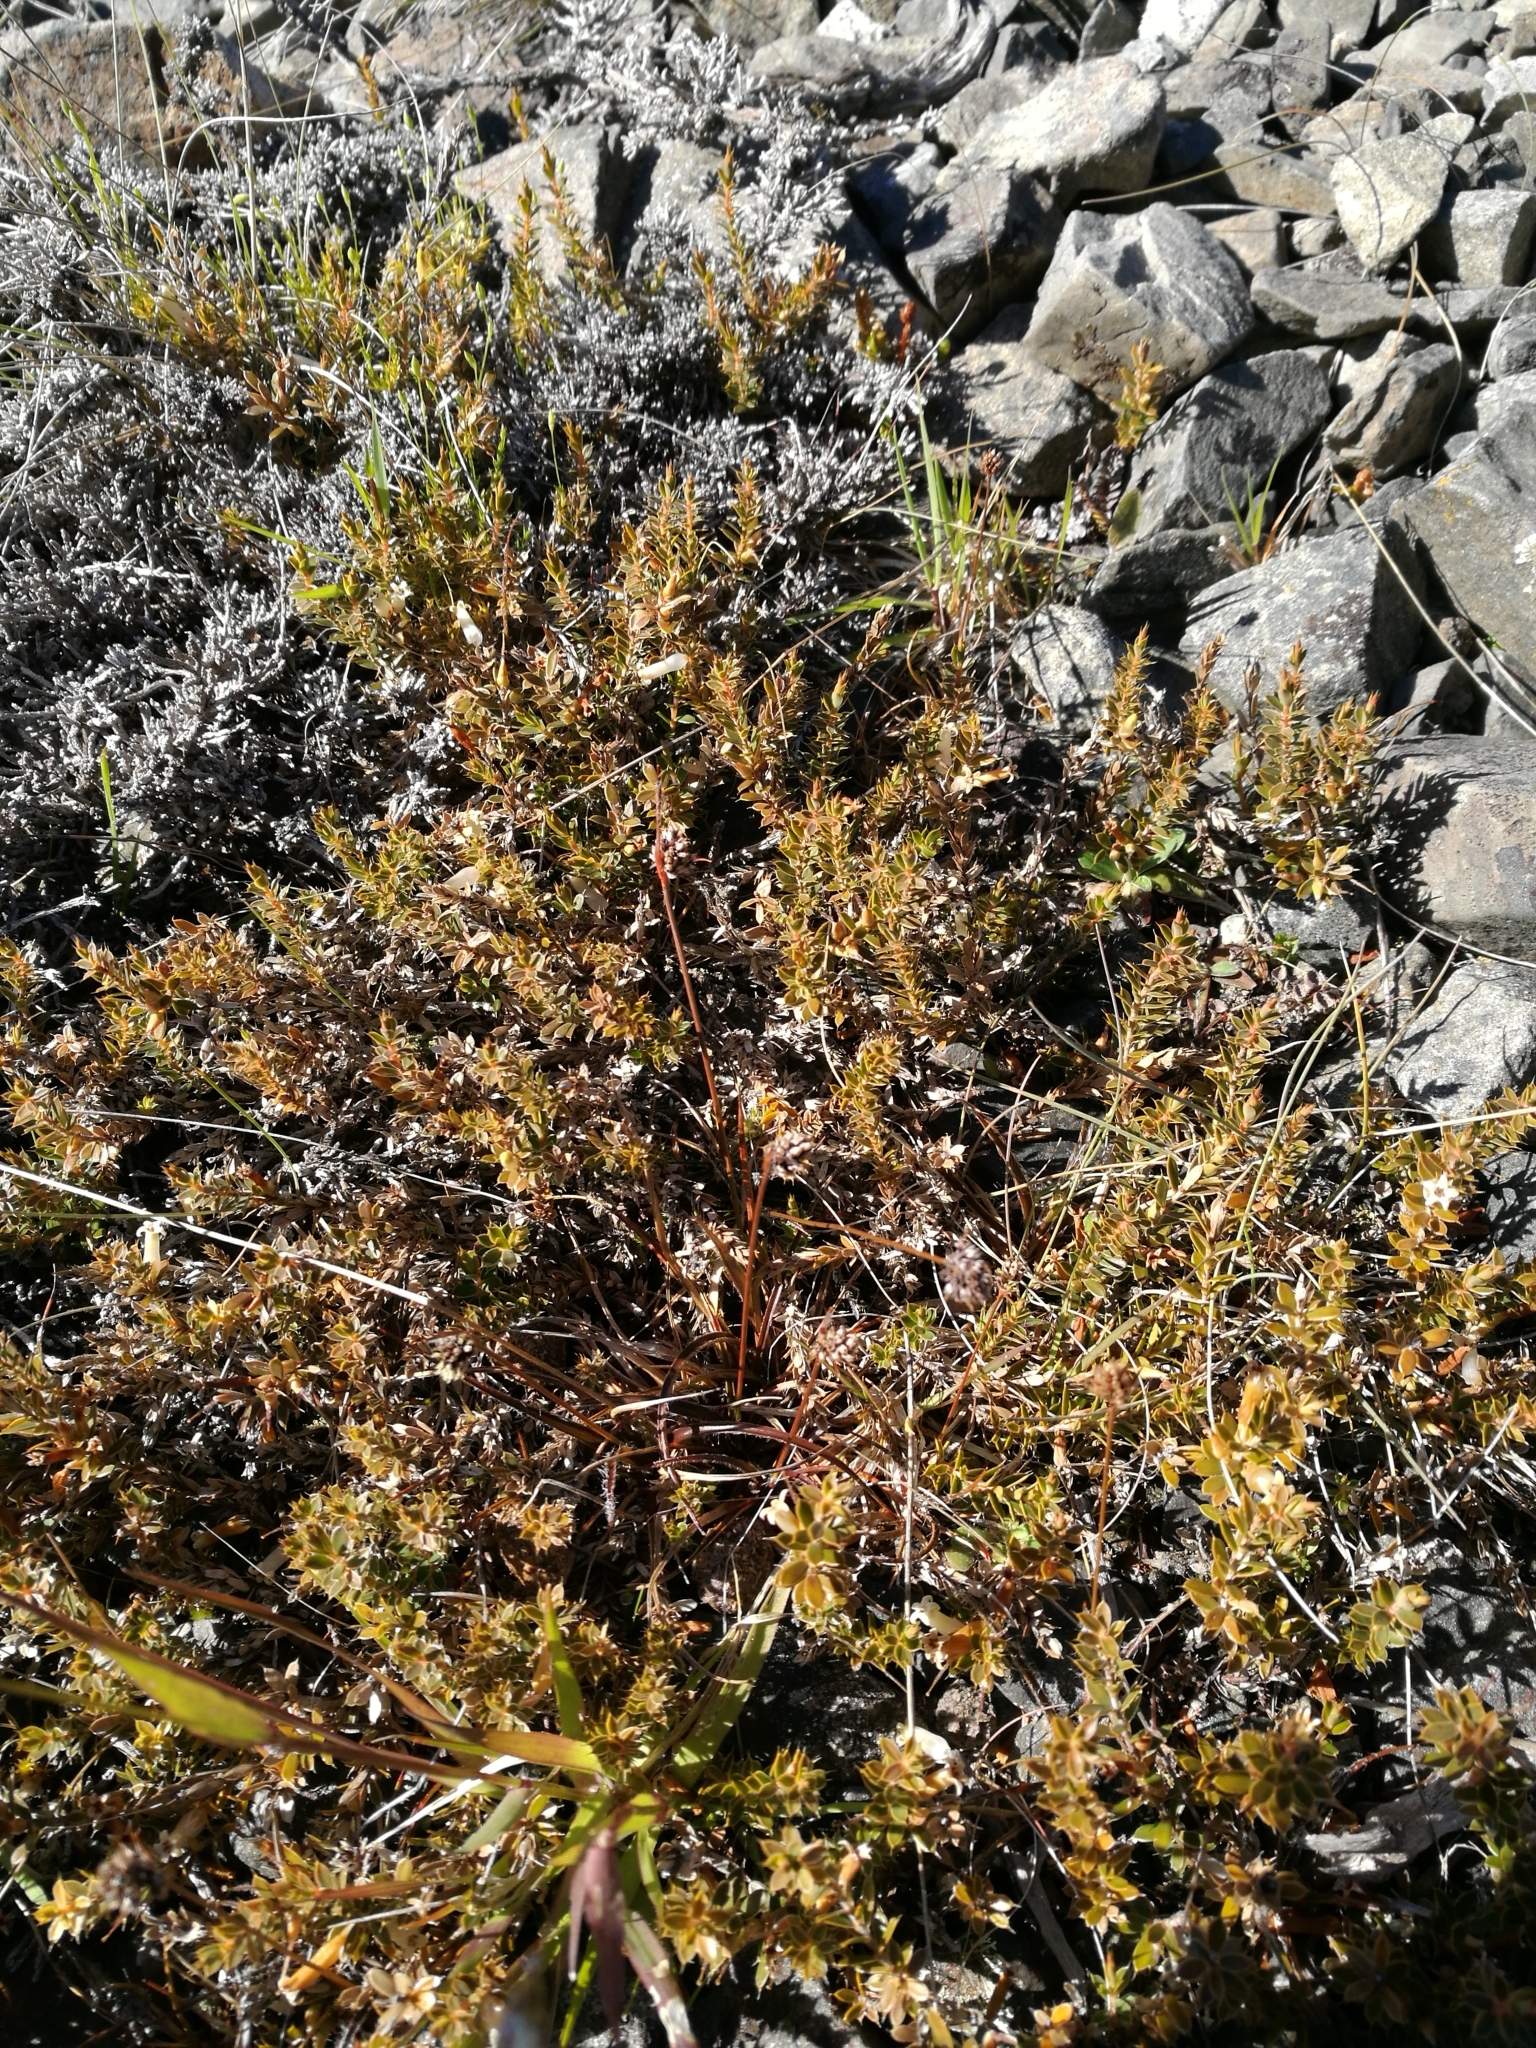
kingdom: Plantae
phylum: Tracheophyta
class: Magnoliopsida
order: Ericales
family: Ericaceae
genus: Styphelia
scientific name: Styphelia nesophila
